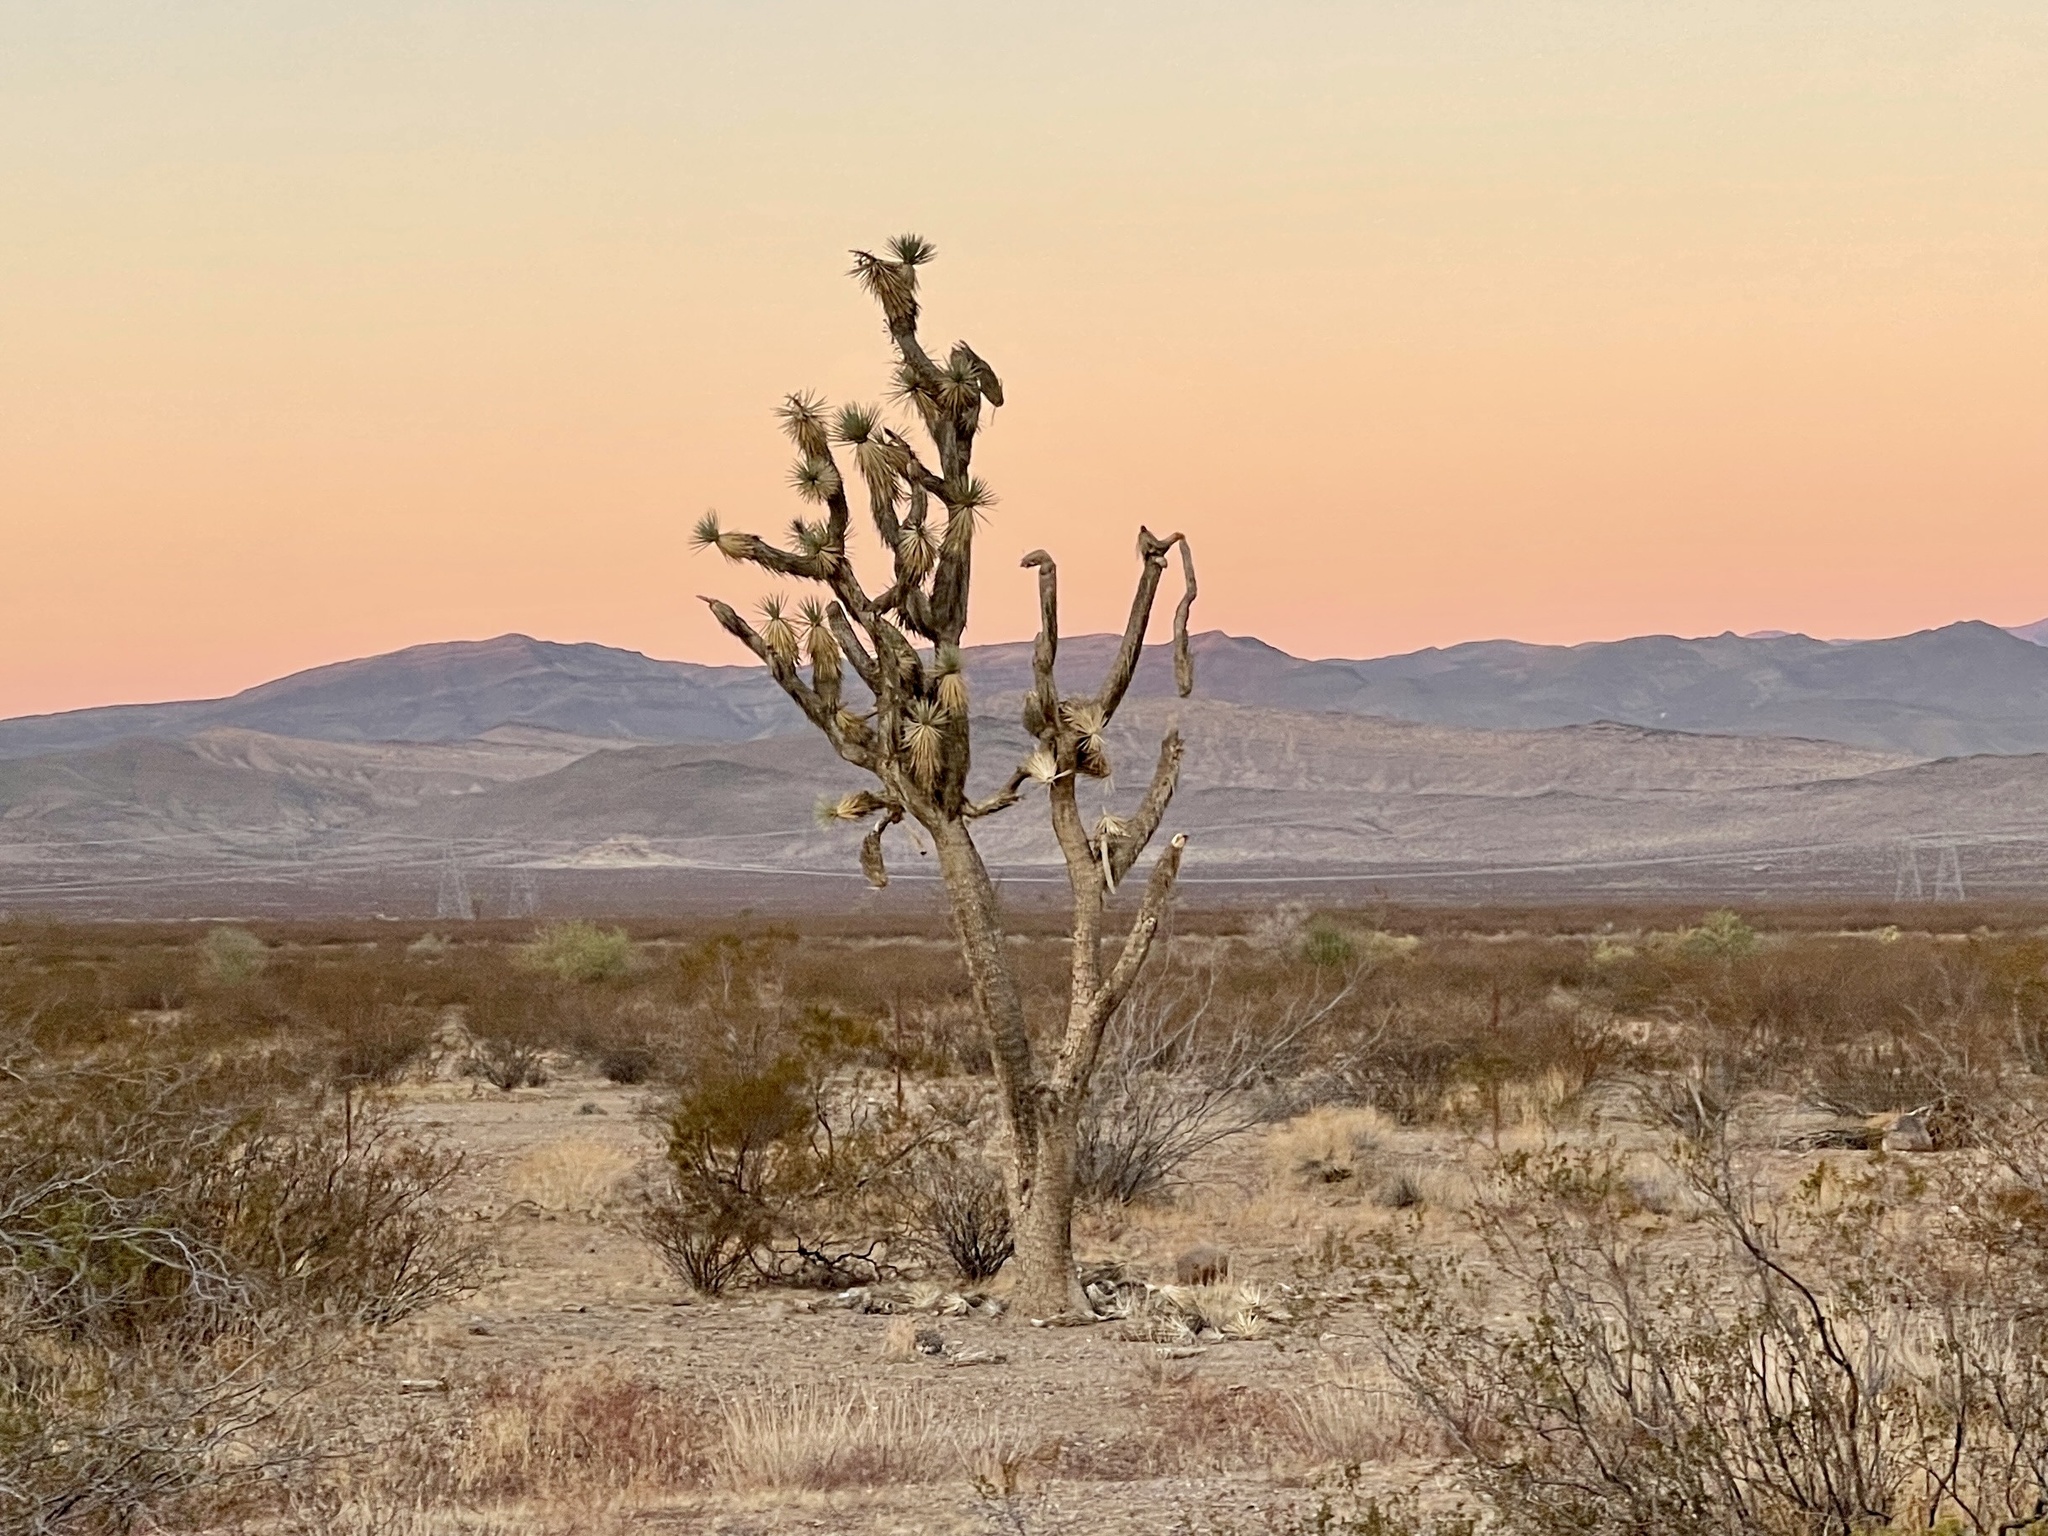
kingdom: Plantae
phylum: Tracheophyta
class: Liliopsida
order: Asparagales
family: Asparagaceae
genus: Yucca
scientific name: Yucca brevifolia
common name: Joshua tree
